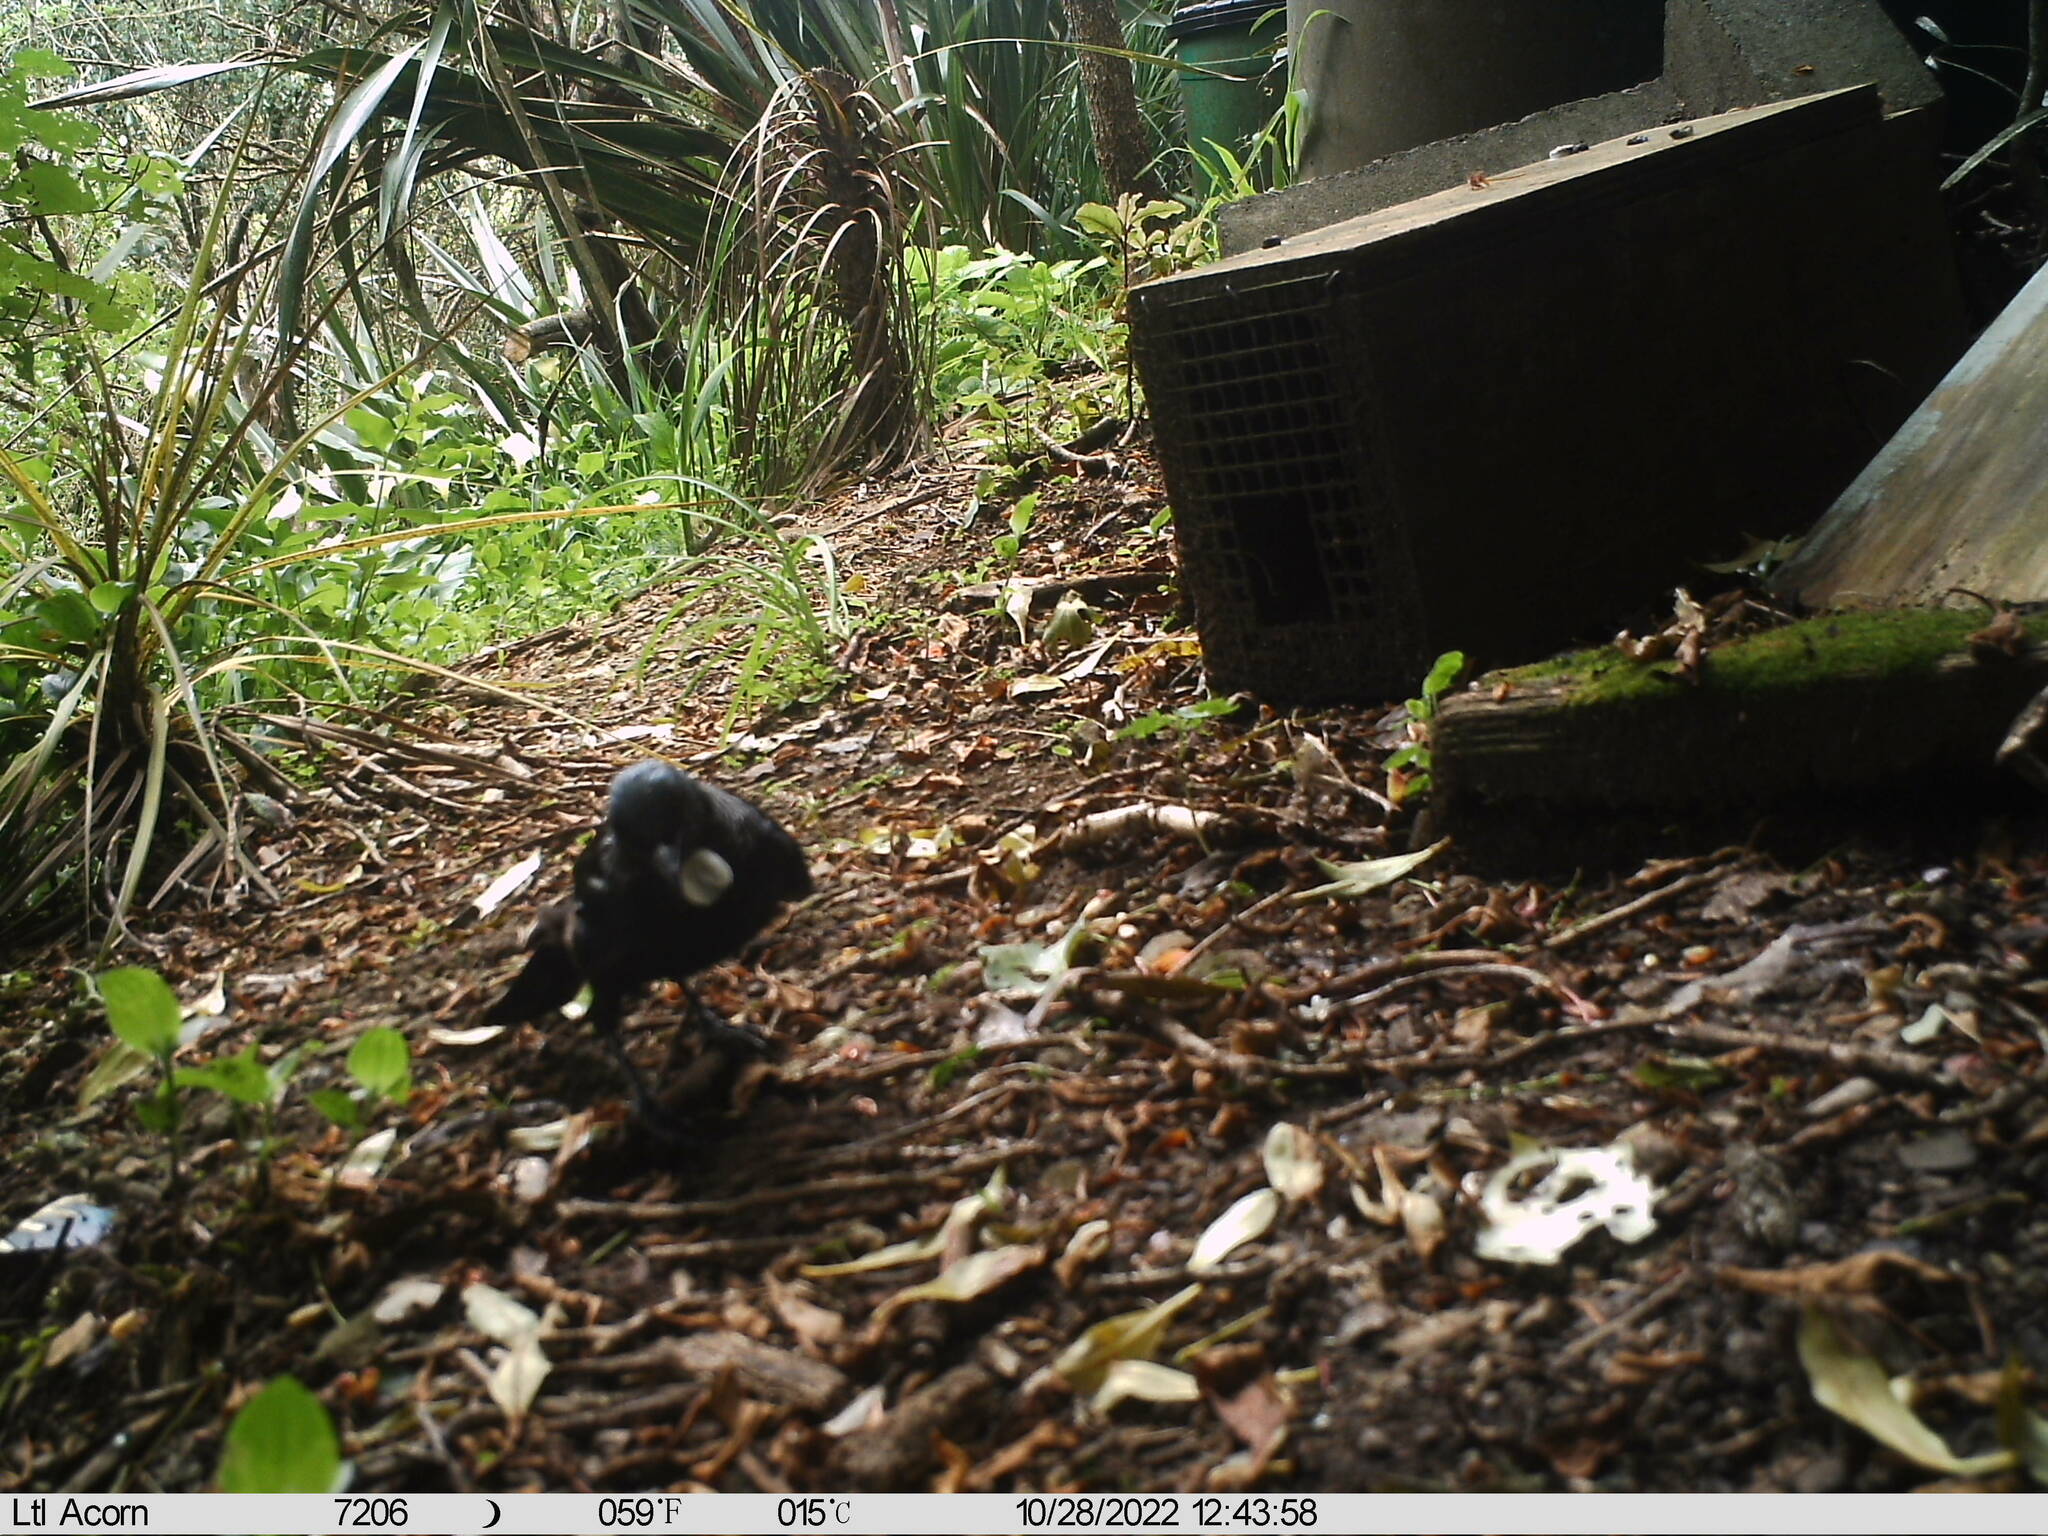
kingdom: Animalia
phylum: Chordata
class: Aves
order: Passeriformes
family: Meliphagidae
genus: Prosthemadera
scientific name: Prosthemadera novaeseelandiae
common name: Tui
